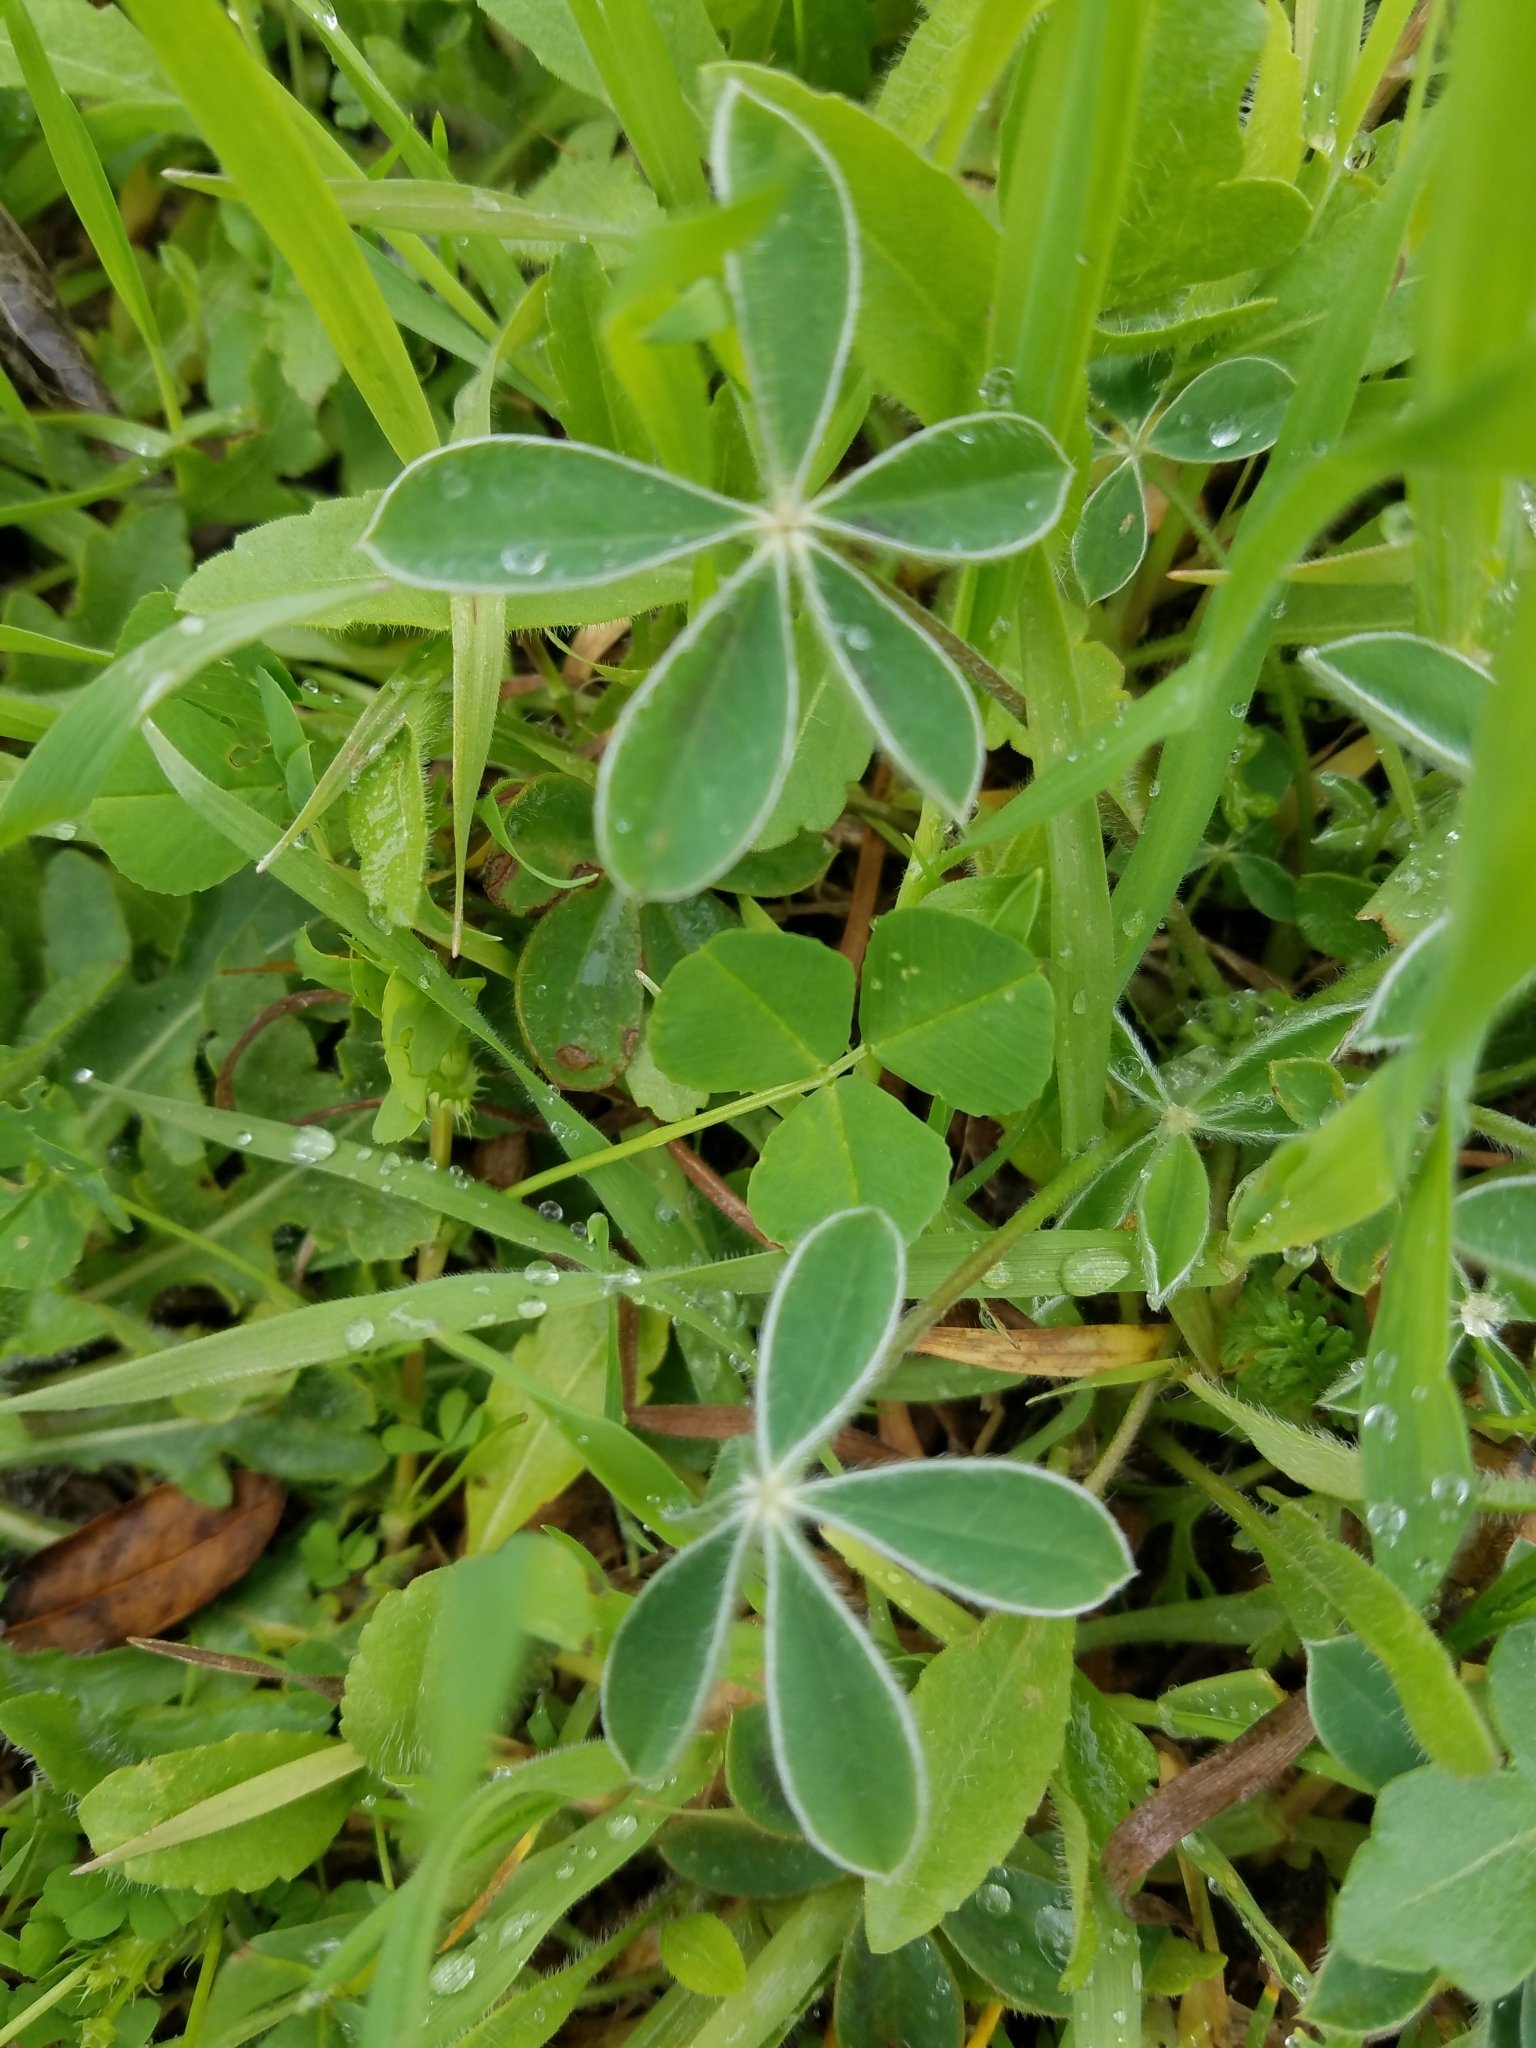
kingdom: Plantae
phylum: Tracheophyta
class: Magnoliopsida
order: Fabales
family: Fabaceae
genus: Lupinus
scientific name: Lupinus texensis
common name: Texas bluebonnet
